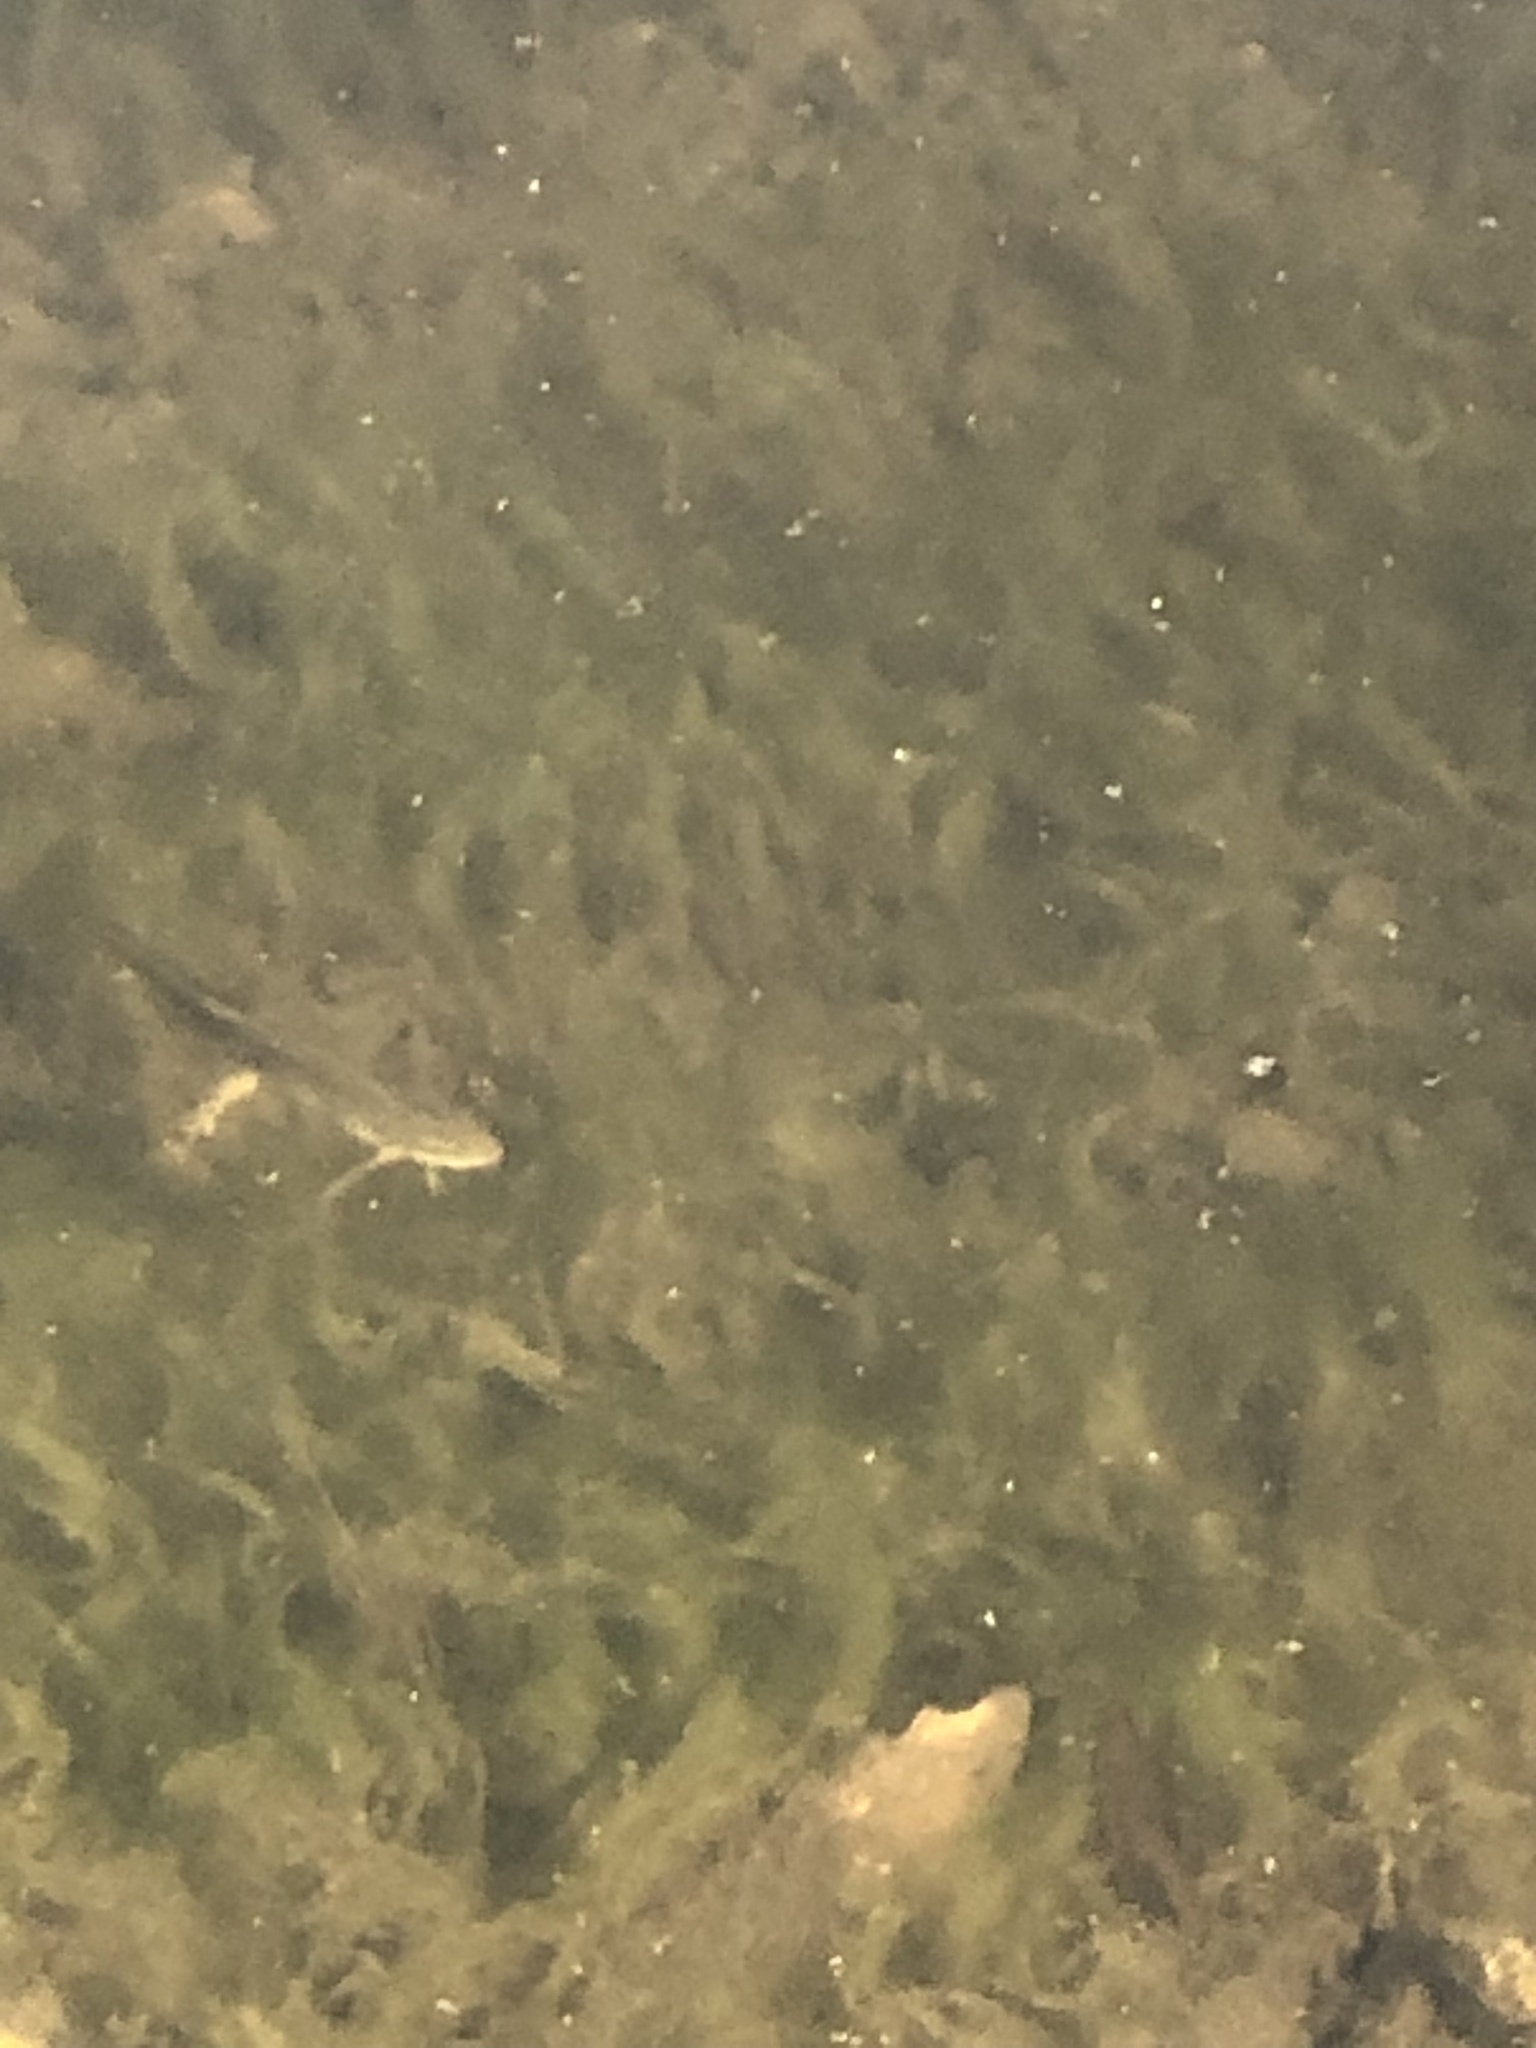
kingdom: Animalia
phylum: Chordata
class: Amphibia
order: Caudata
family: Salamandridae
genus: Notophthalmus
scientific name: Notophthalmus viridescens
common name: Eastern newt
